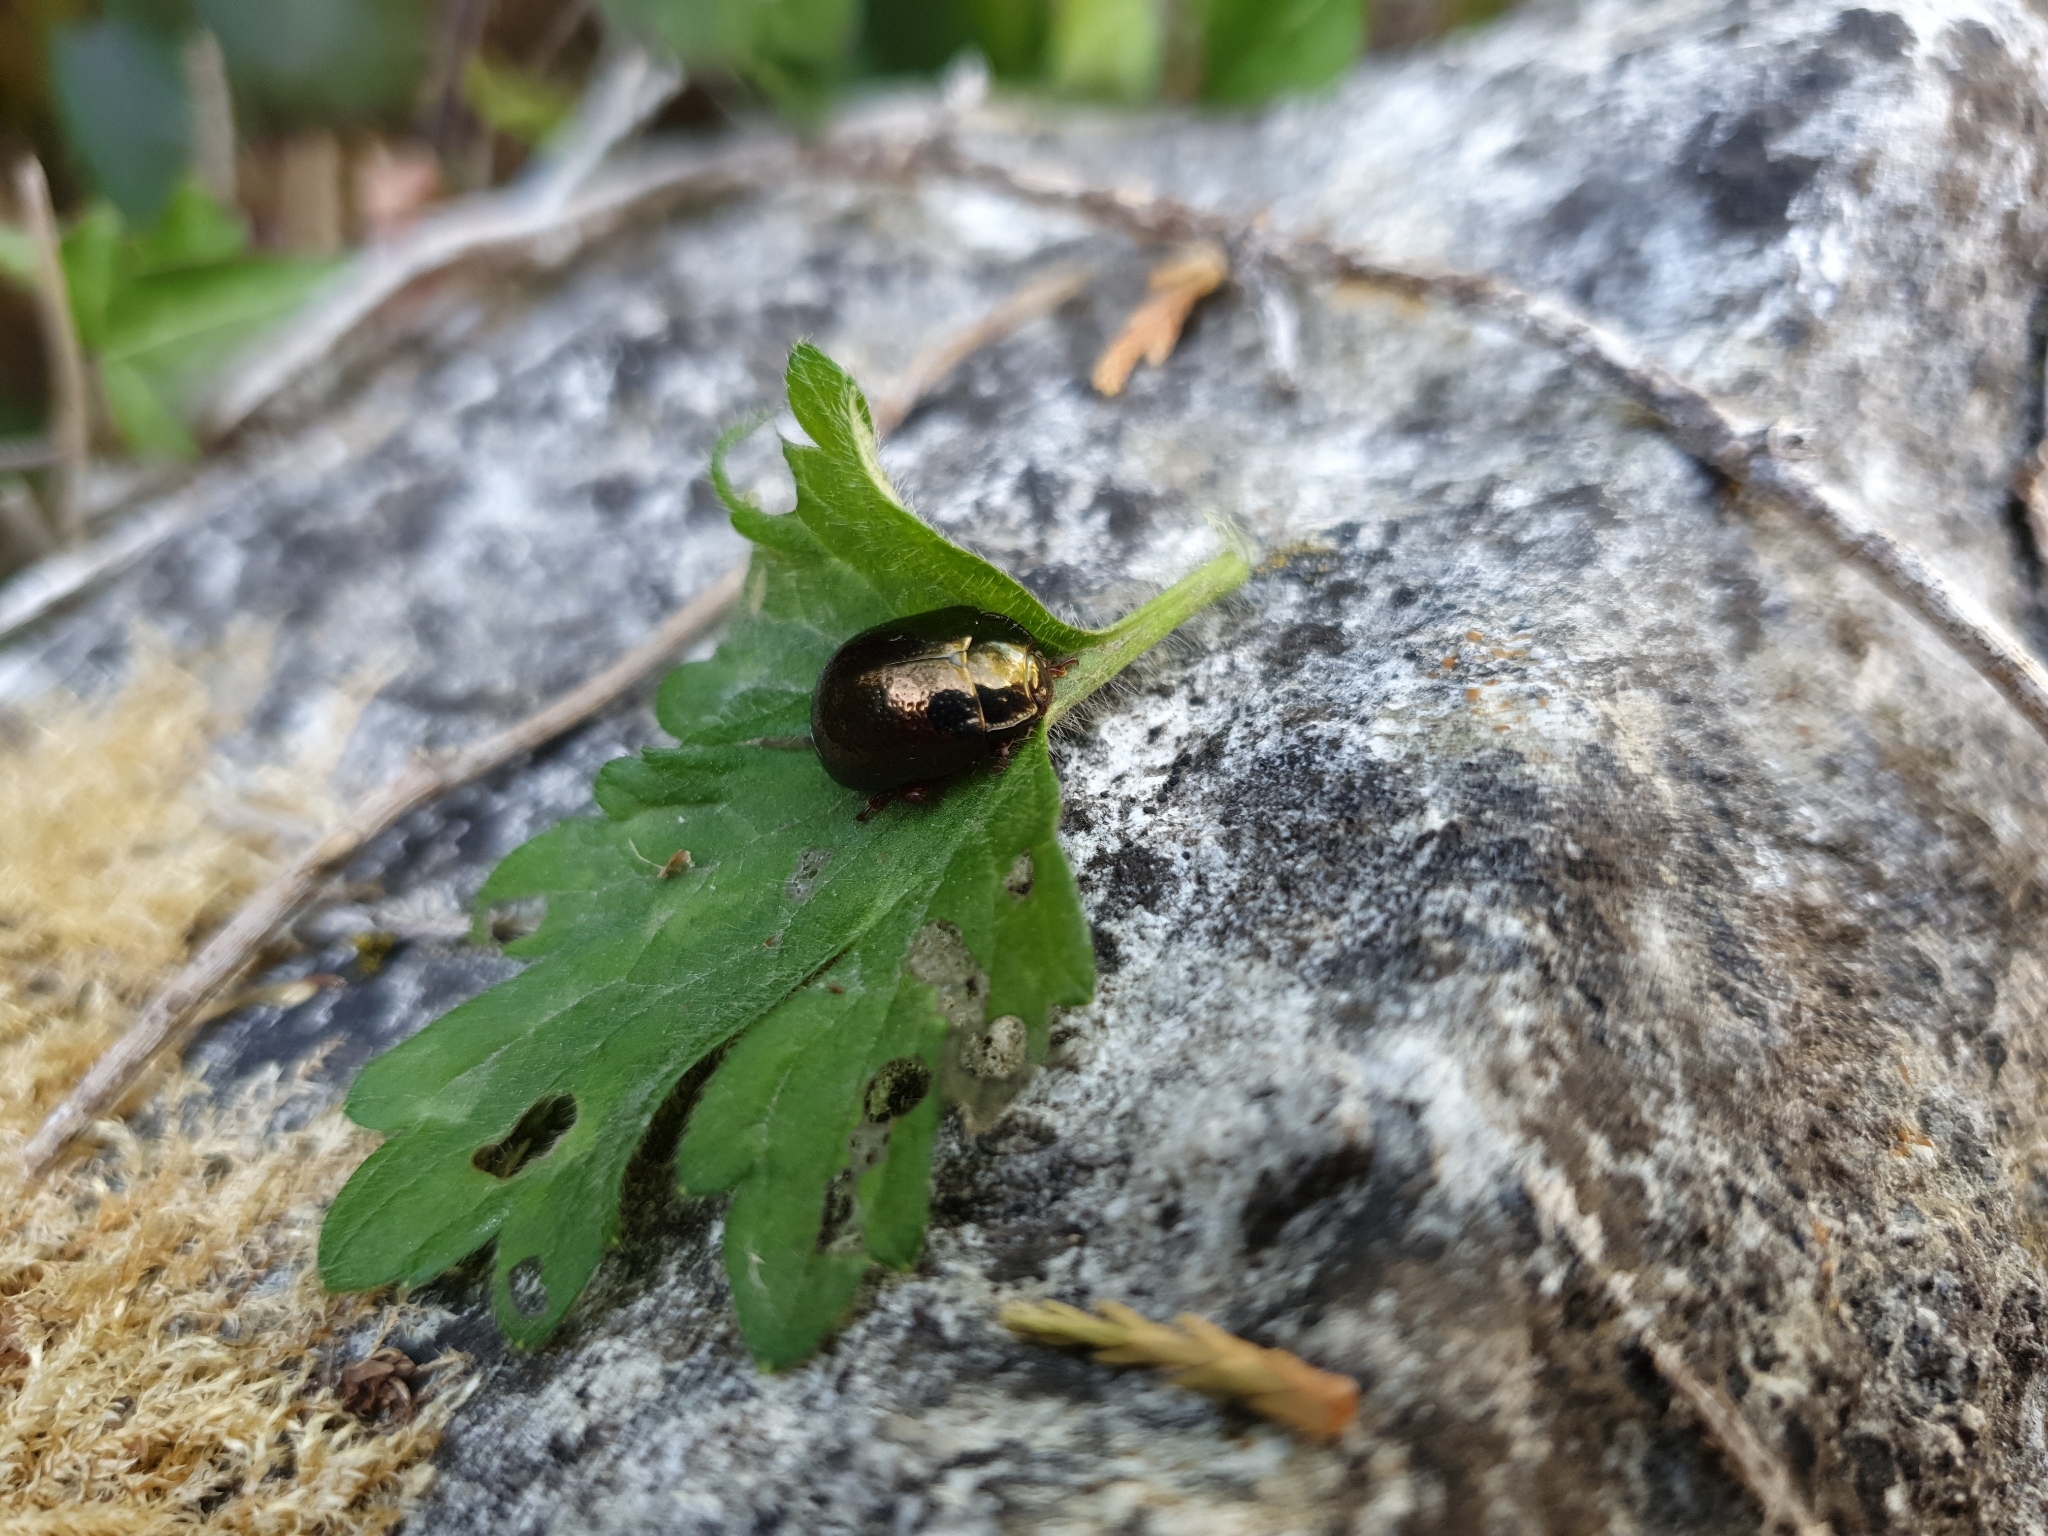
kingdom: Animalia
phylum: Arthropoda
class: Insecta
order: Coleoptera
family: Chrysomelidae
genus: Chrysolina
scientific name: Chrysolina bankii
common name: Leaf beetle
